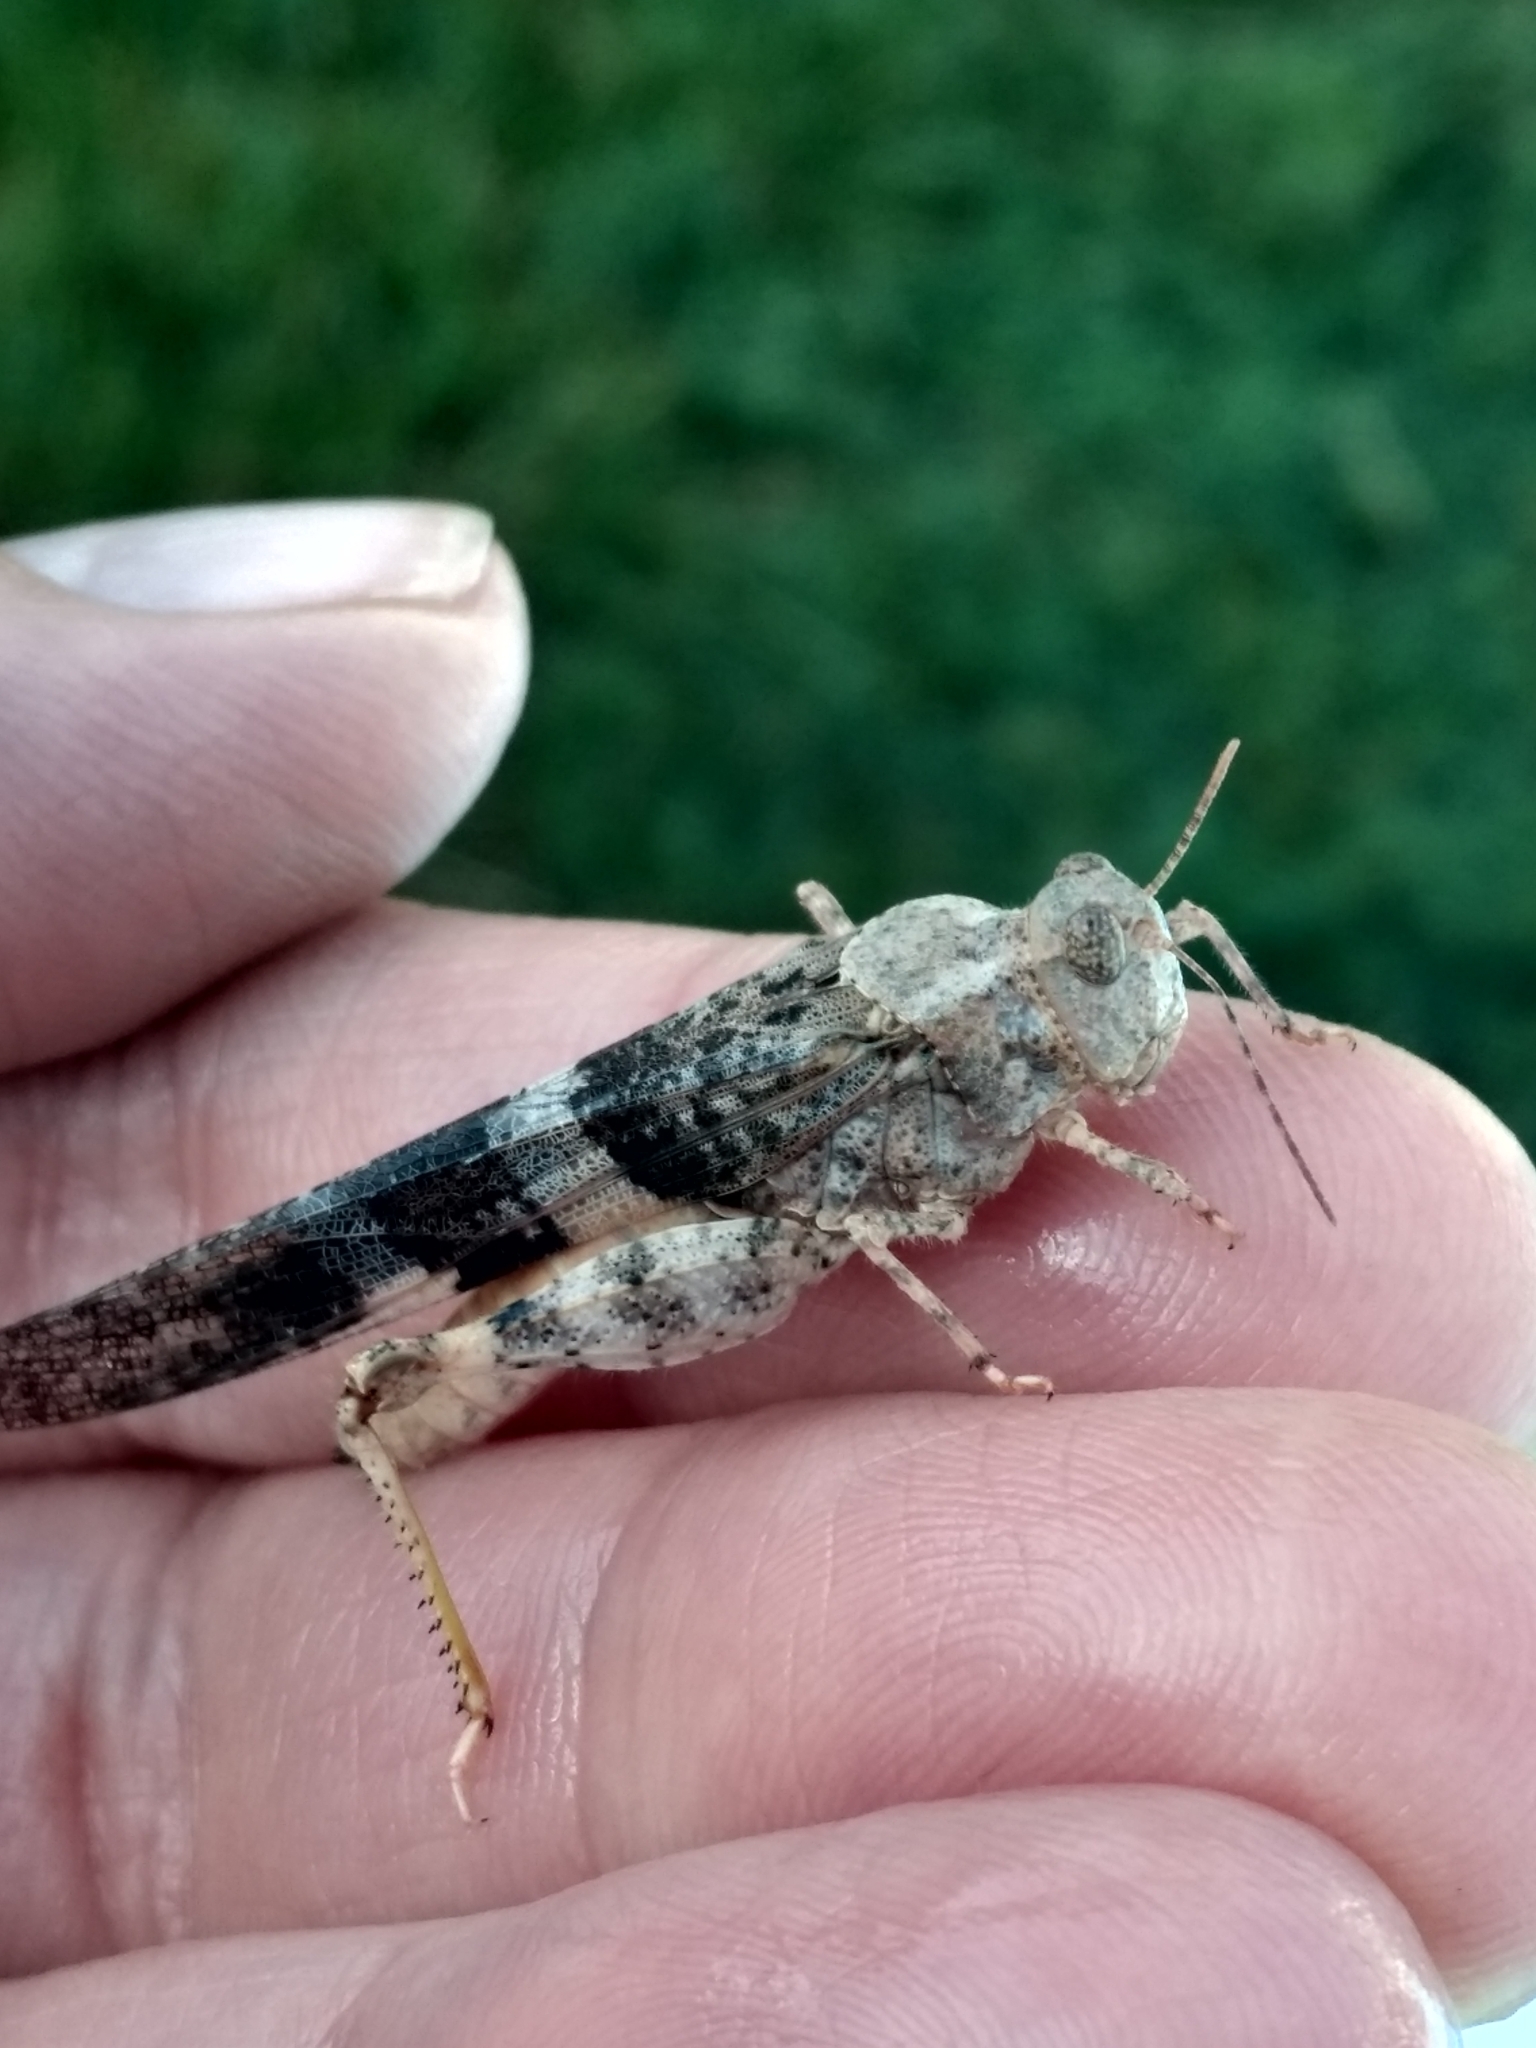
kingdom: Animalia
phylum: Arthropoda
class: Insecta
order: Orthoptera
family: Acrididae
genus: Trimerotropis
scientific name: Trimerotropis pallidipennis
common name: Pallid-winged grasshopper
